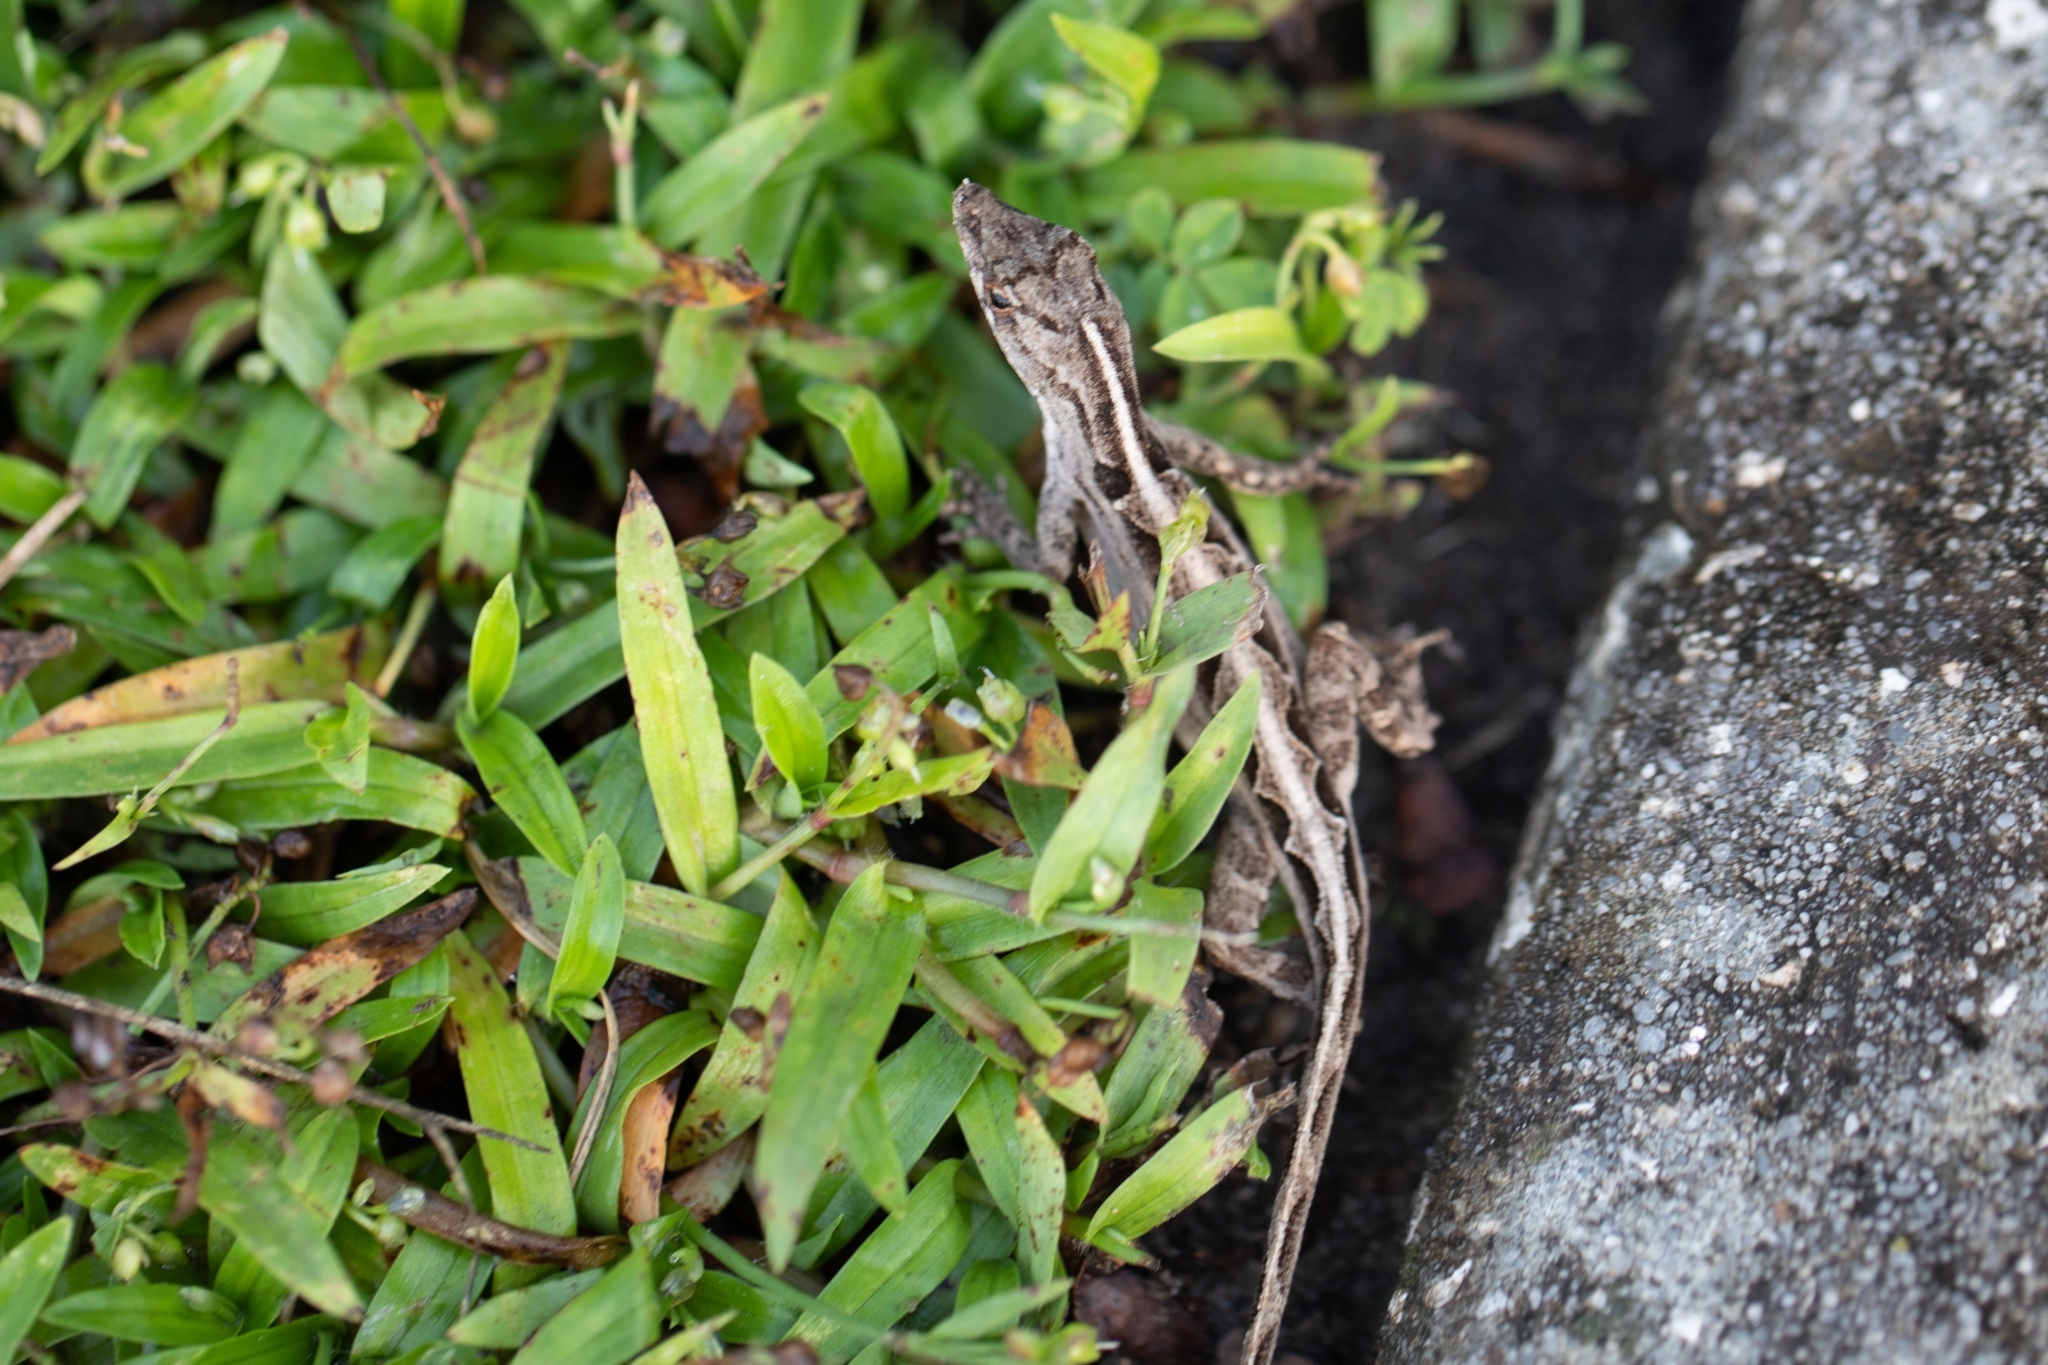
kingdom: Animalia
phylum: Chordata
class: Squamata
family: Dactyloidae
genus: Anolis
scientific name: Anolis sagrei
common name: Brown anole
